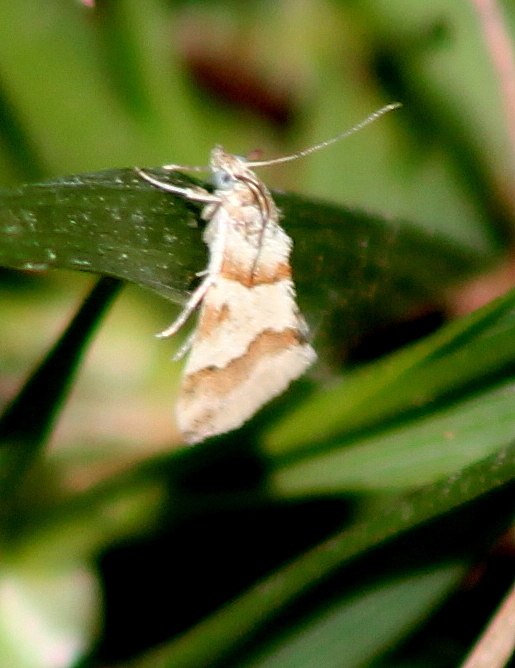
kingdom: Animalia
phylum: Arthropoda
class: Insecta
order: Lepidoptera
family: Crambidae
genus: Noctuelia
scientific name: Noctuelia Mimoschinia rufofascialis
